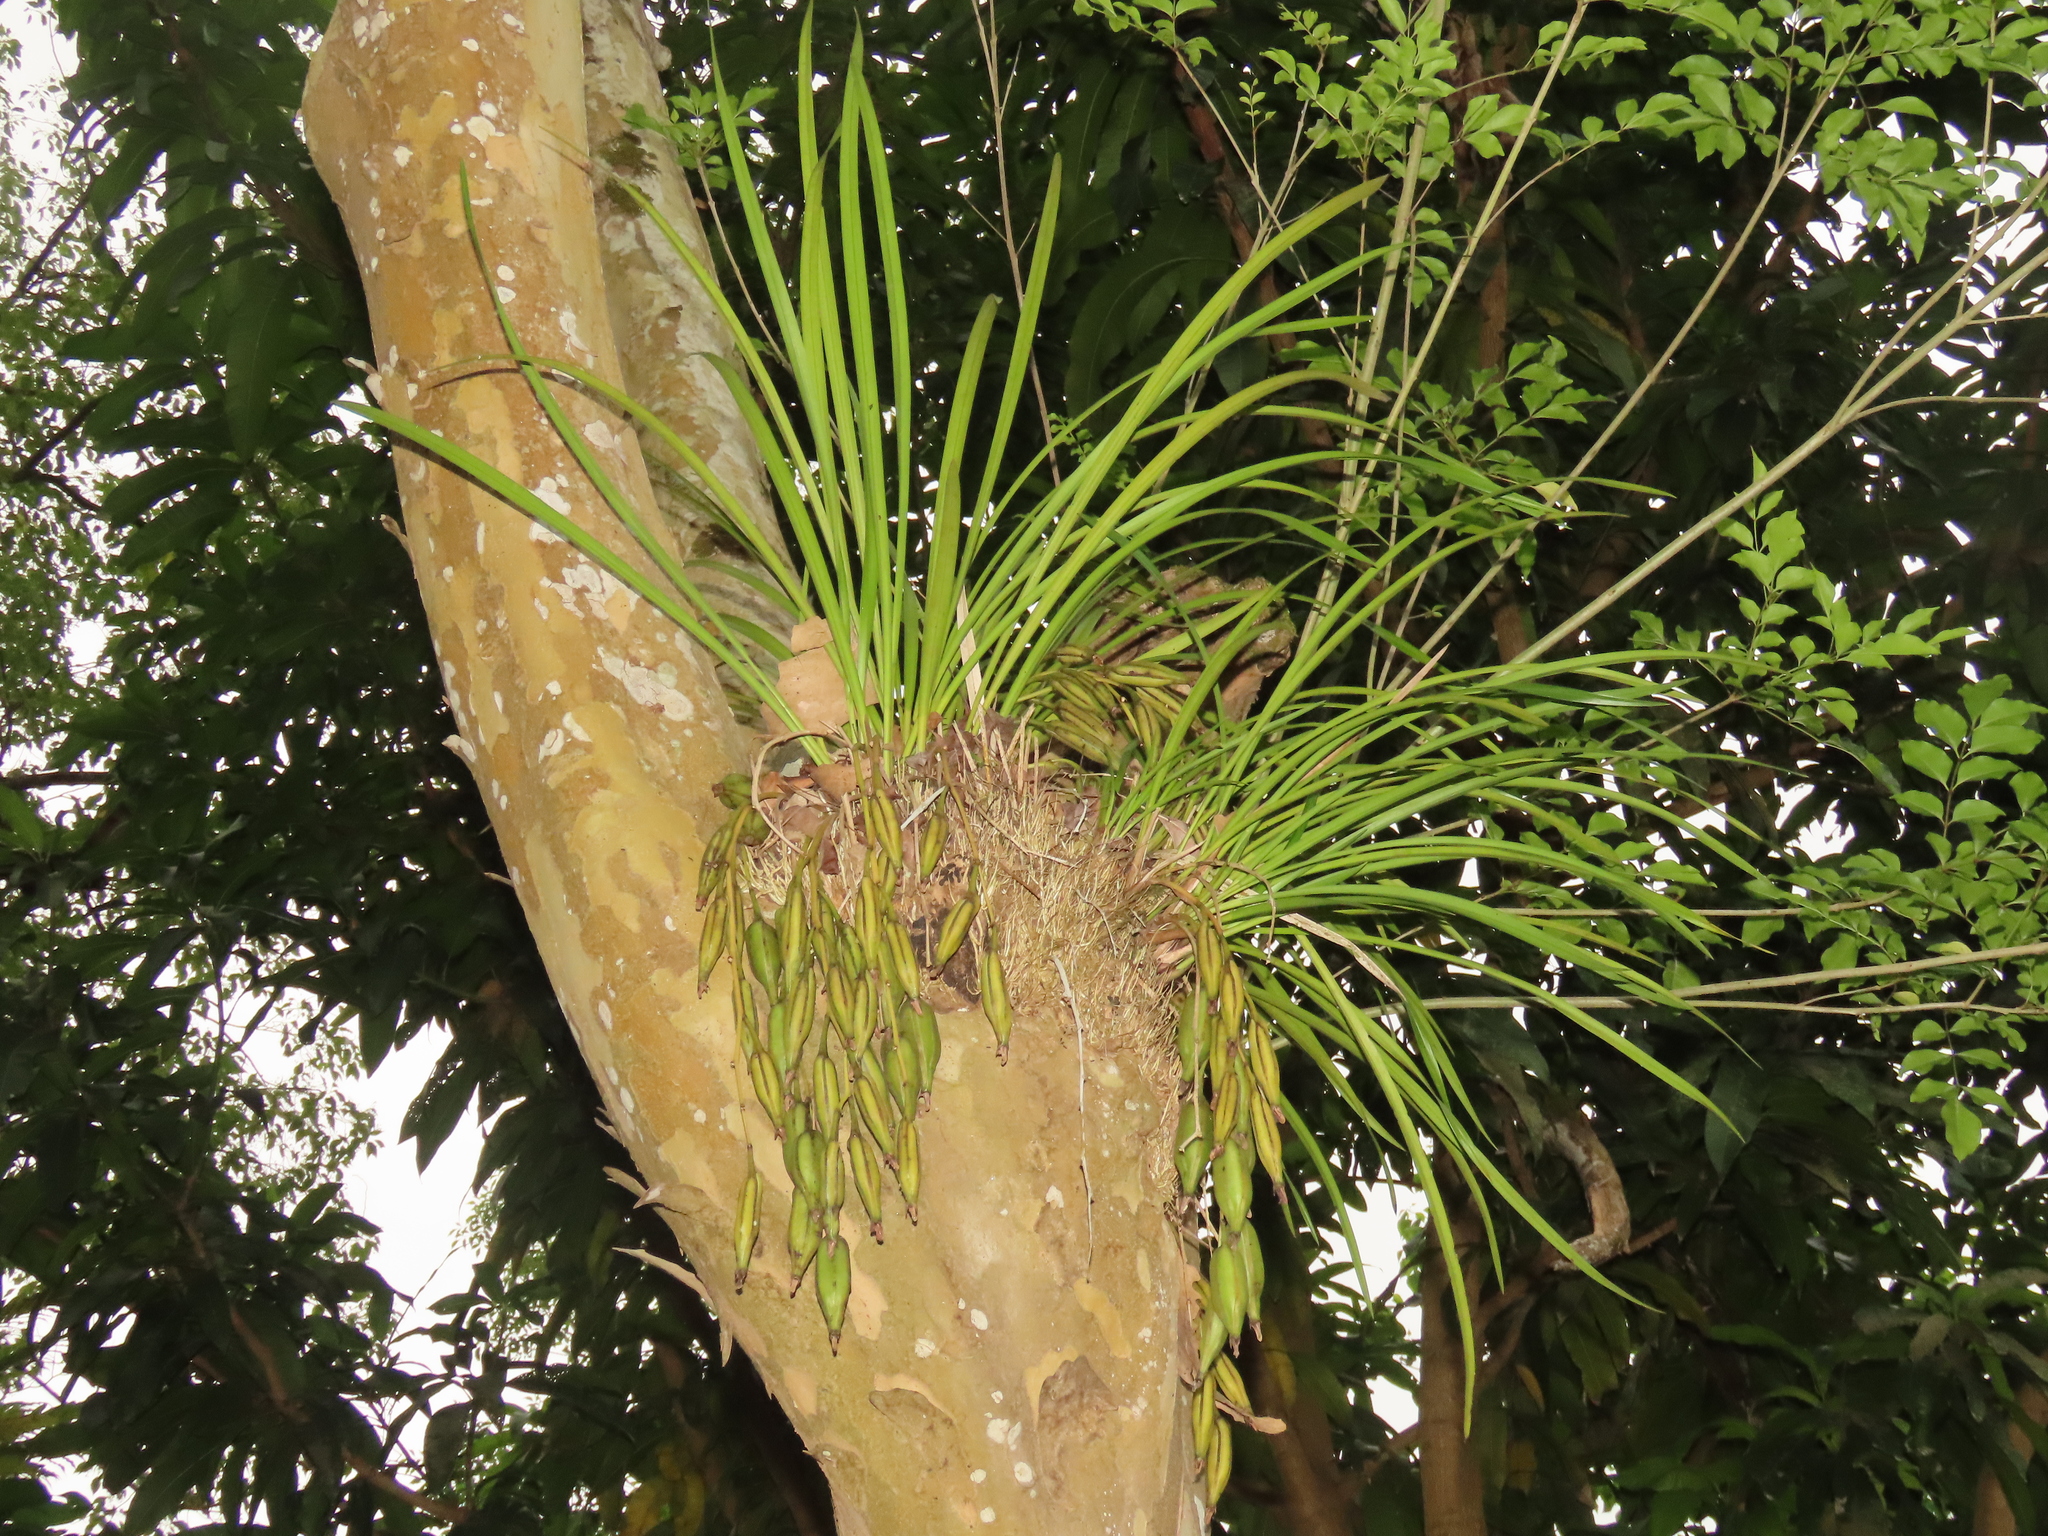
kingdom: Plantae
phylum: Tracheophyta
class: Liliopsida
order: Asparagales
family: Orchidaceae
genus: Cymbidium
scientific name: Cymbidium dayanum
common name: Orchid
